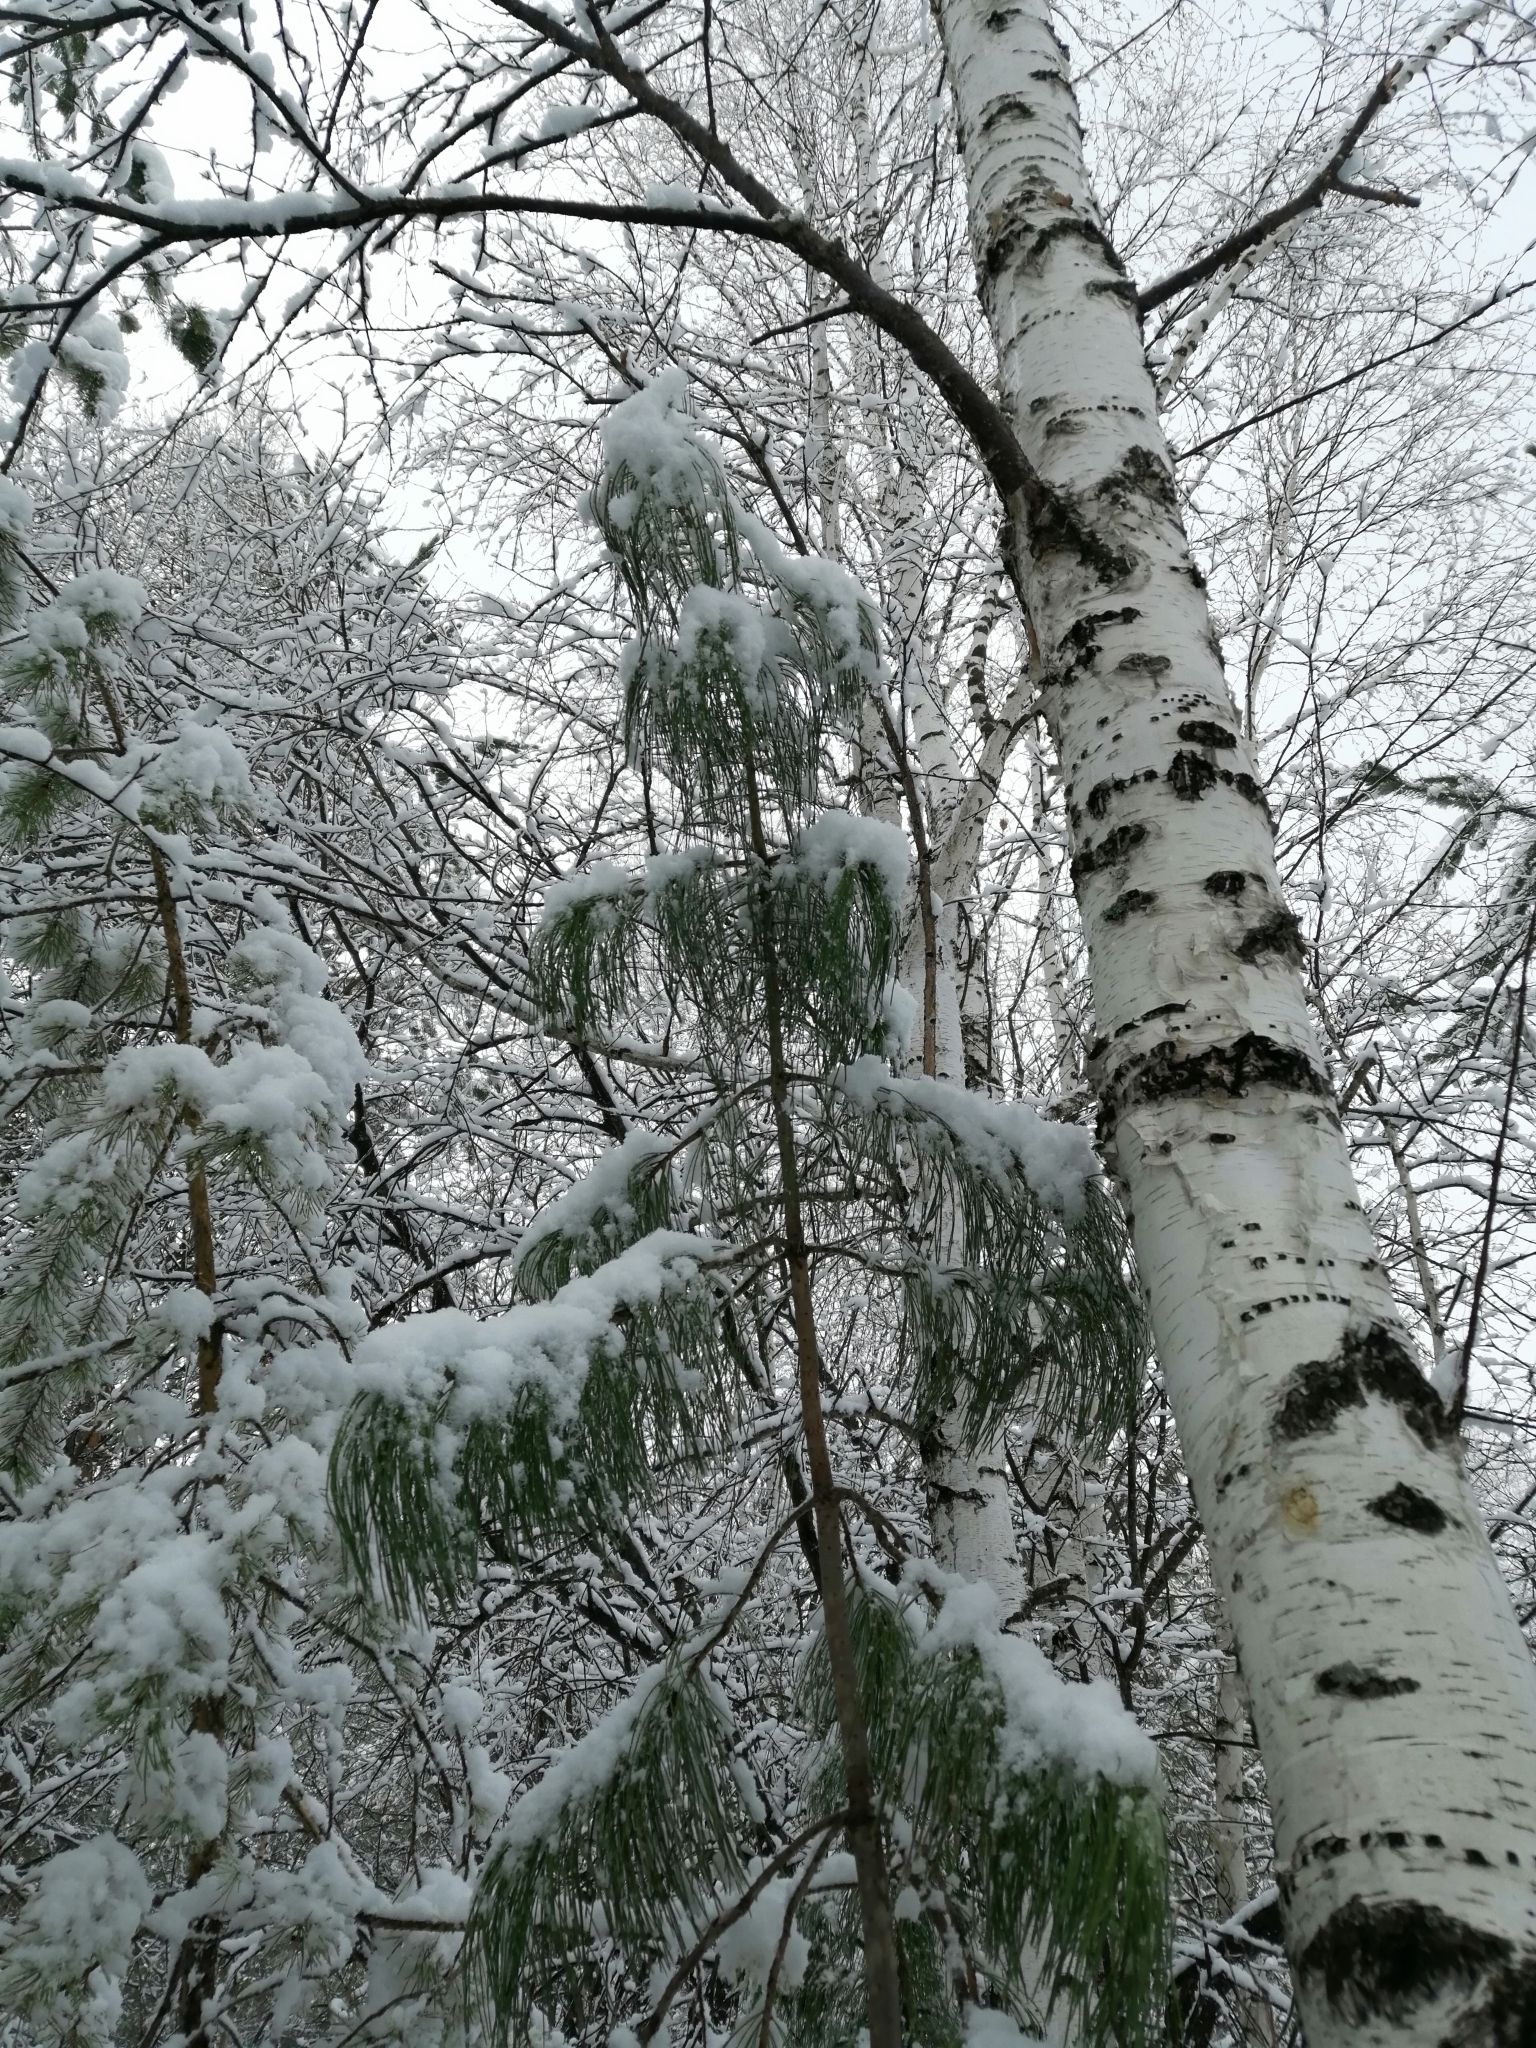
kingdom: Plantae
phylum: Tracheophyta
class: Pinopsida
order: Pinales
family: Pinaceae
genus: Pinus
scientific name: Pinus sibirica
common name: Siberian pine
